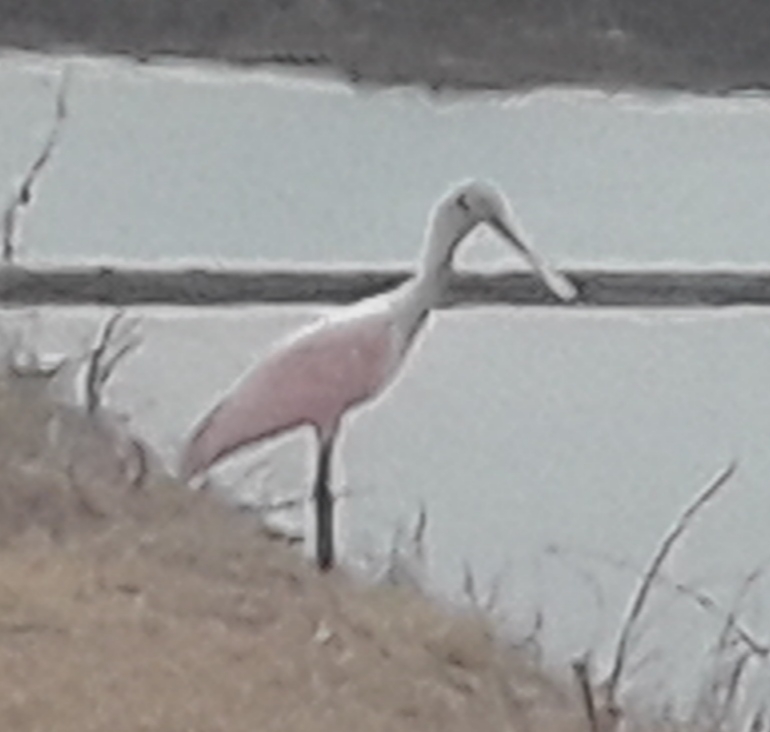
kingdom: Animalia
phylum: Chordata
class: Aves
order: Pelecaniformes
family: Threskiornithidae
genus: Platalea
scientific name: Platalea ajaja
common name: Roseate spoonbill
